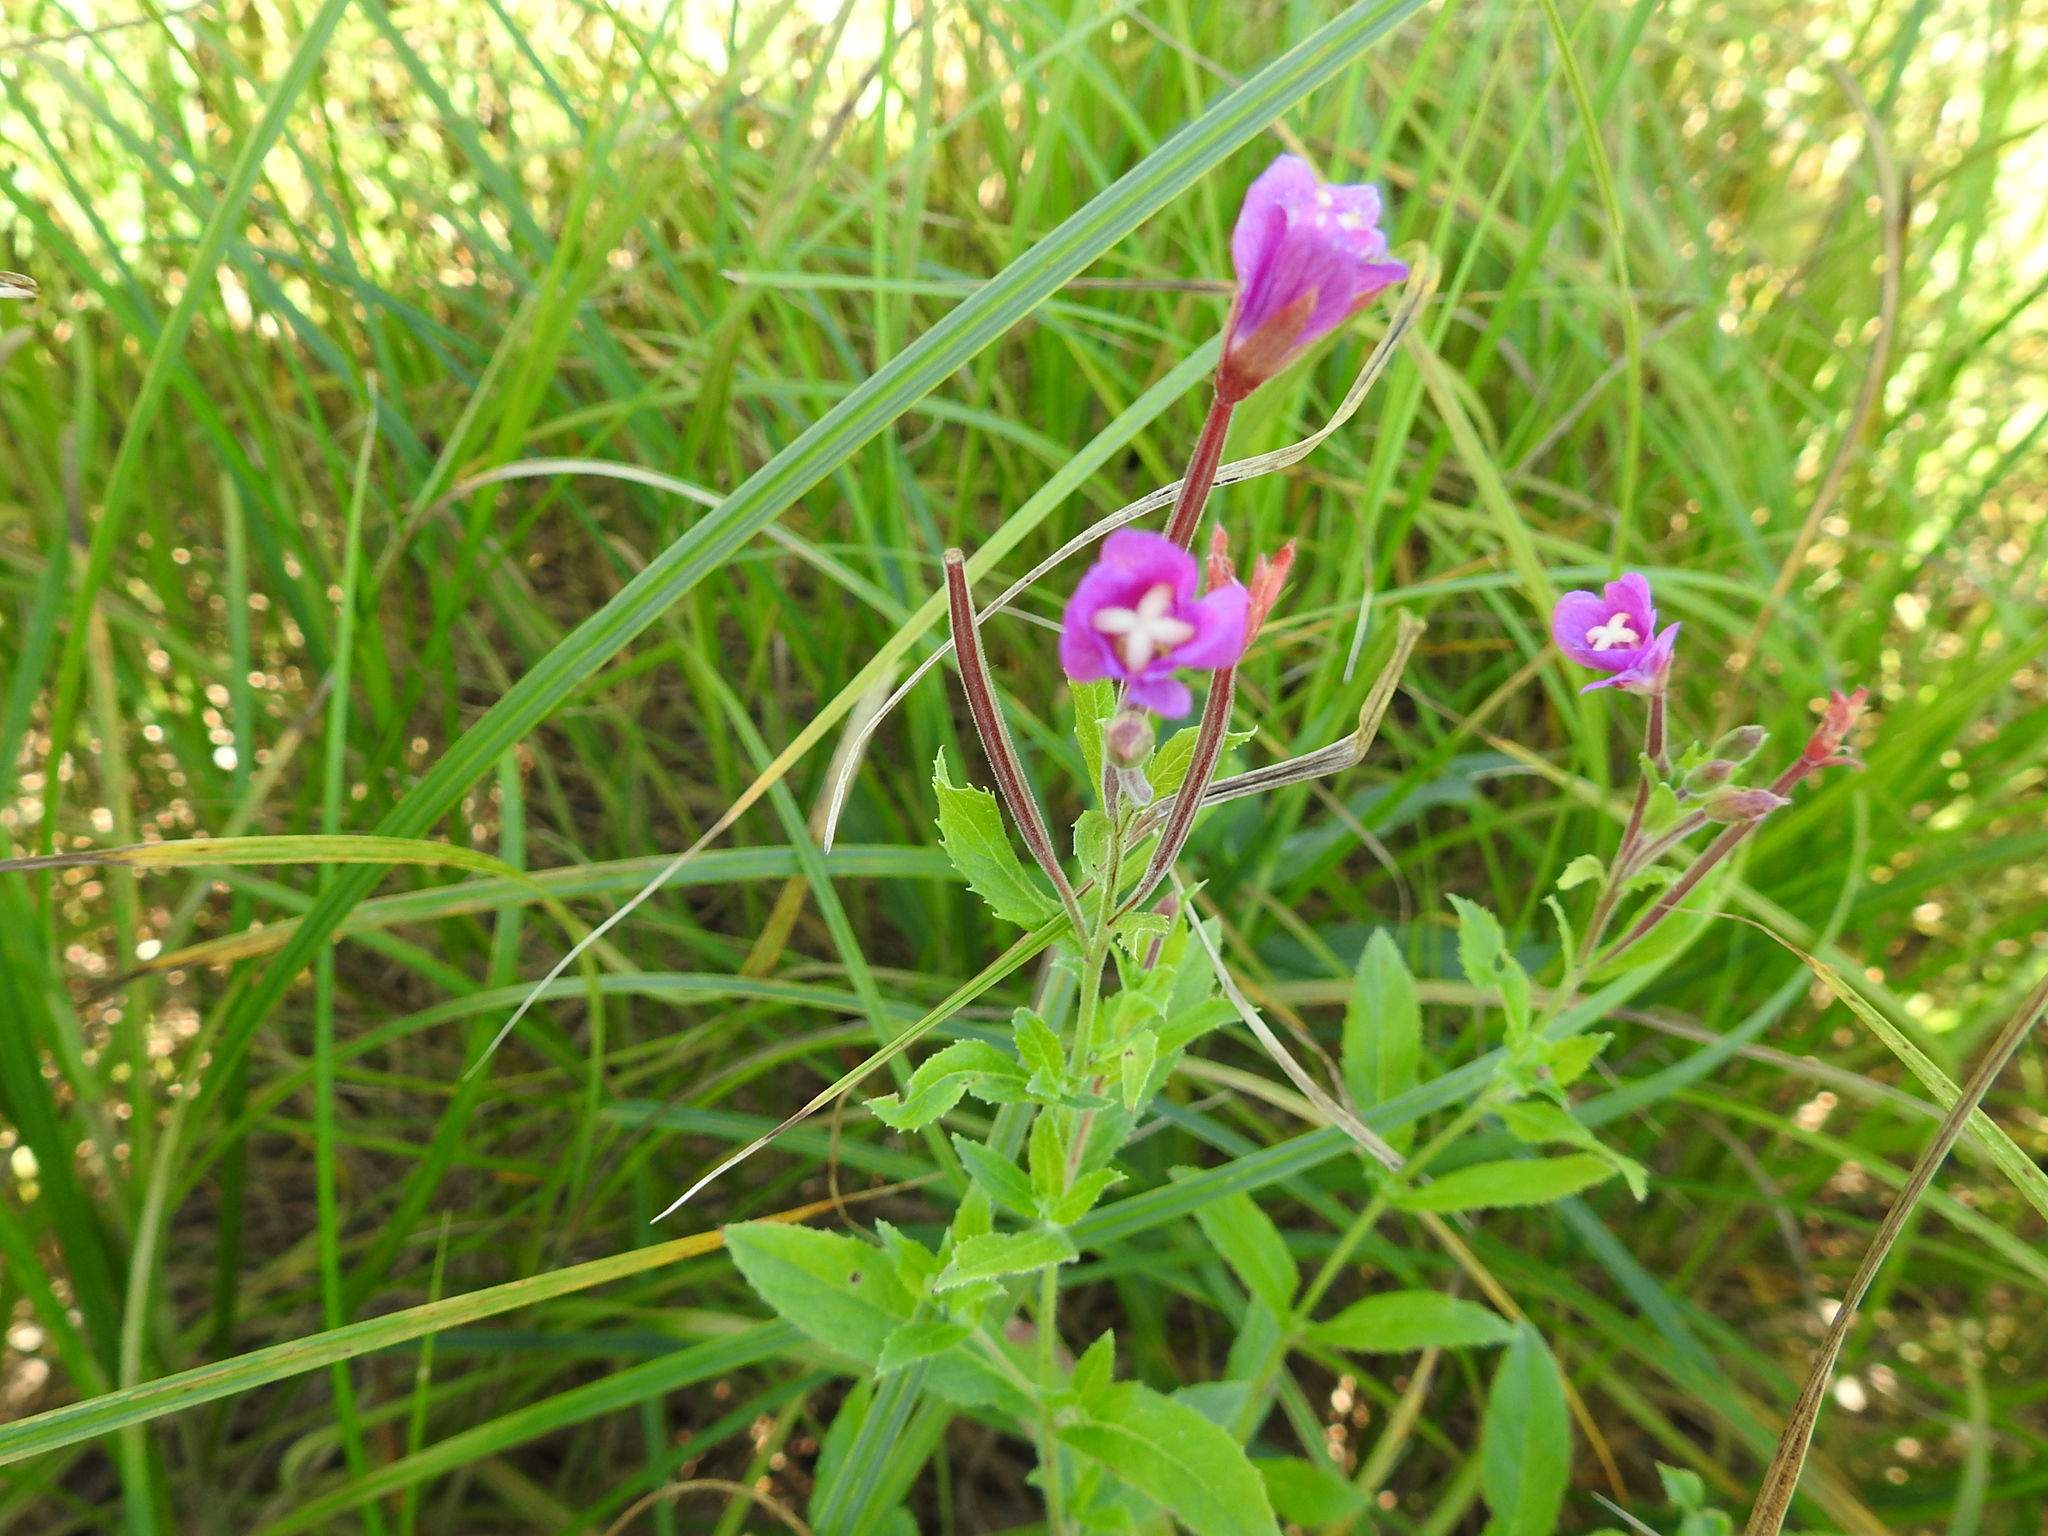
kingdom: Plantae
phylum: Tracheophyta
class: Magnoliopsida
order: Myrtales
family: Onagraceae
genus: Epilobium
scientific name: Epilobium hirsutum
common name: Great willowherb
